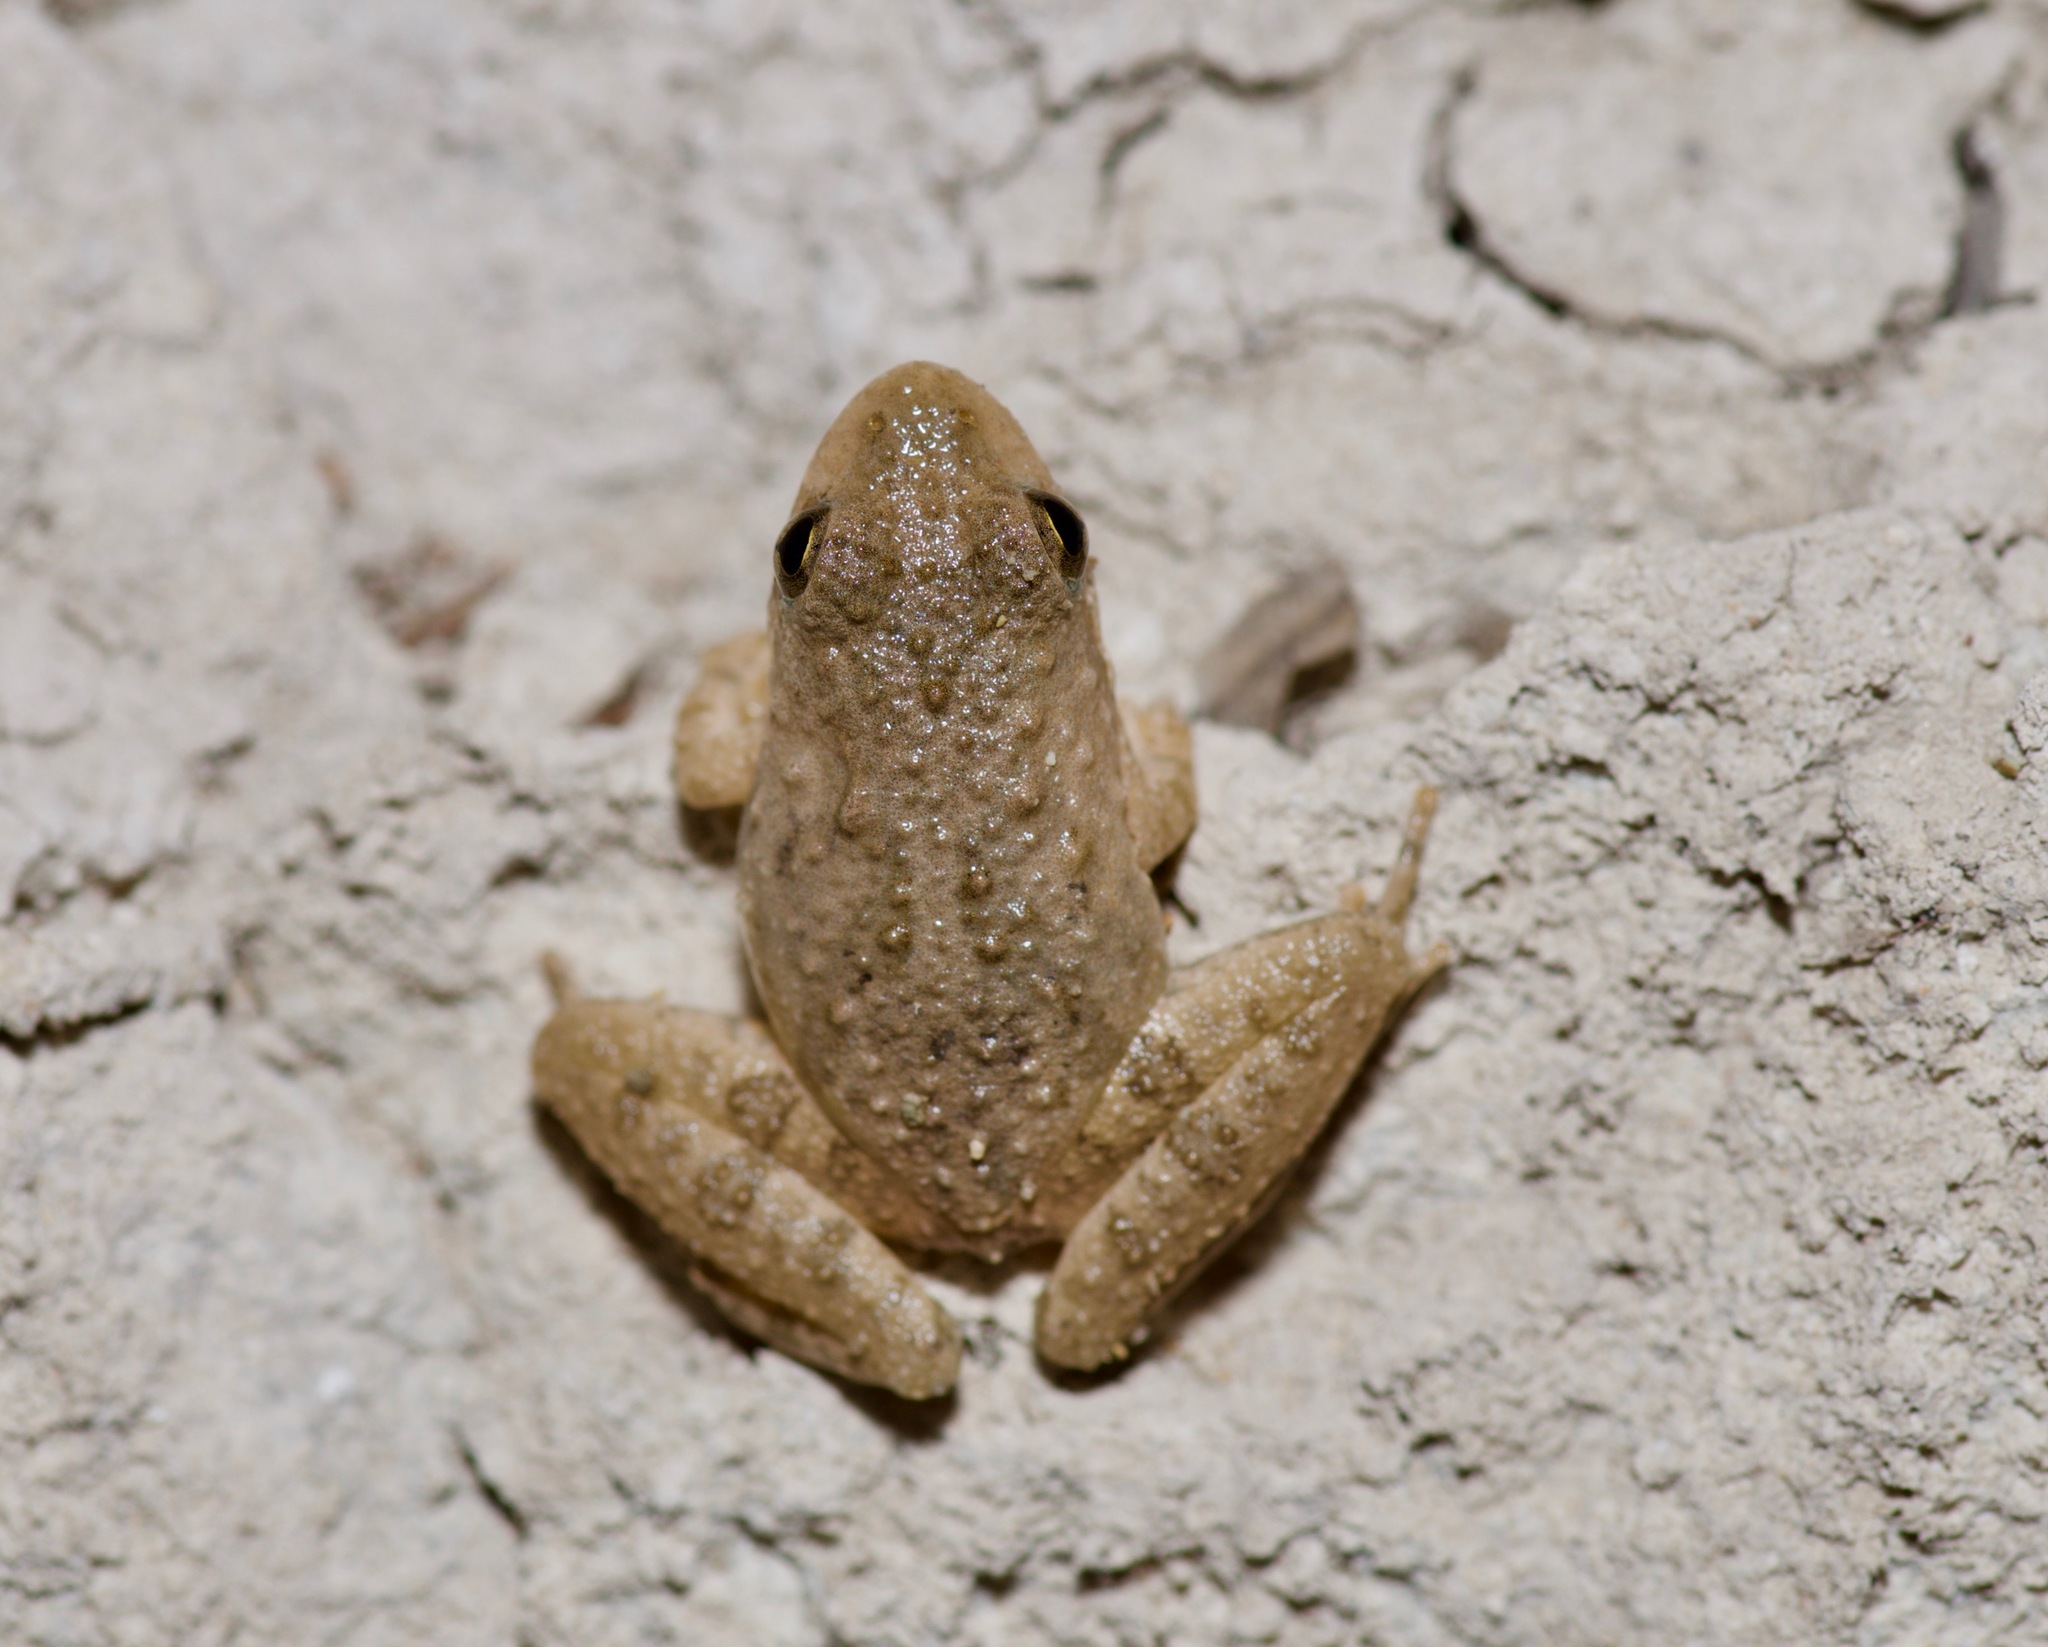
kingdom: Animalia
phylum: Chordata
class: Amphibia
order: Anura
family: Hylidae
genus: Acris
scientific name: Acris blanchardi
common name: Blanchard's cricket frog
